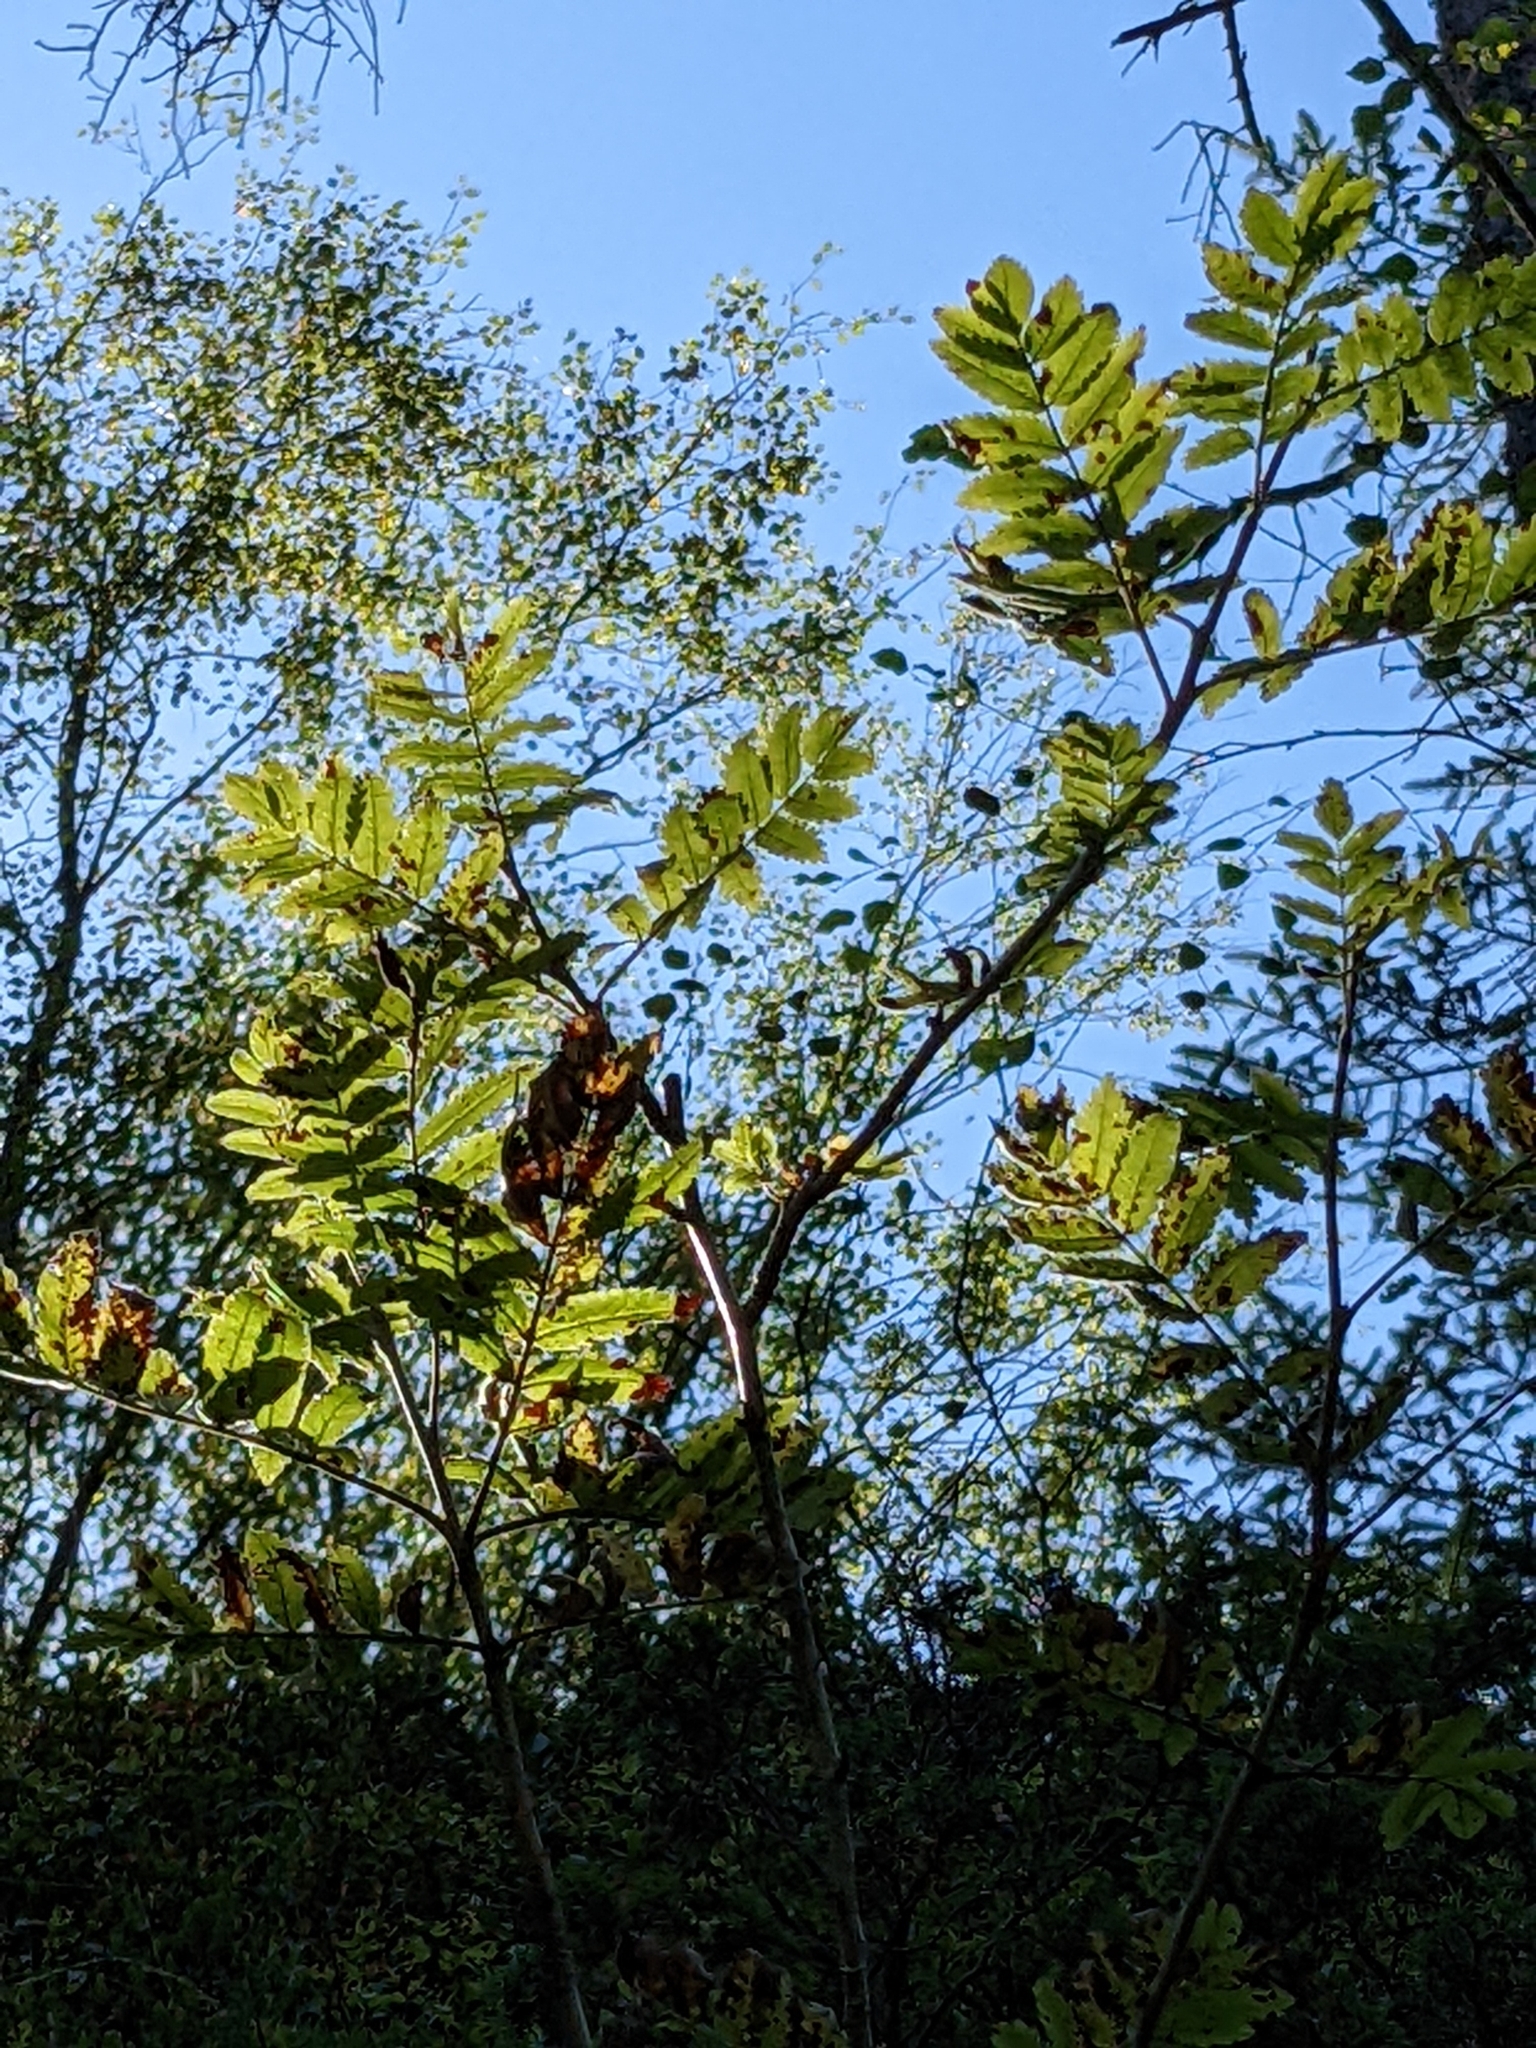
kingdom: Plantae
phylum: Tracheophyta
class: Magnoliopsida
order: Rosales
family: Rosaceae
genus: Sorbus
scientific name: Sorbus aucuparia
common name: Rowan
